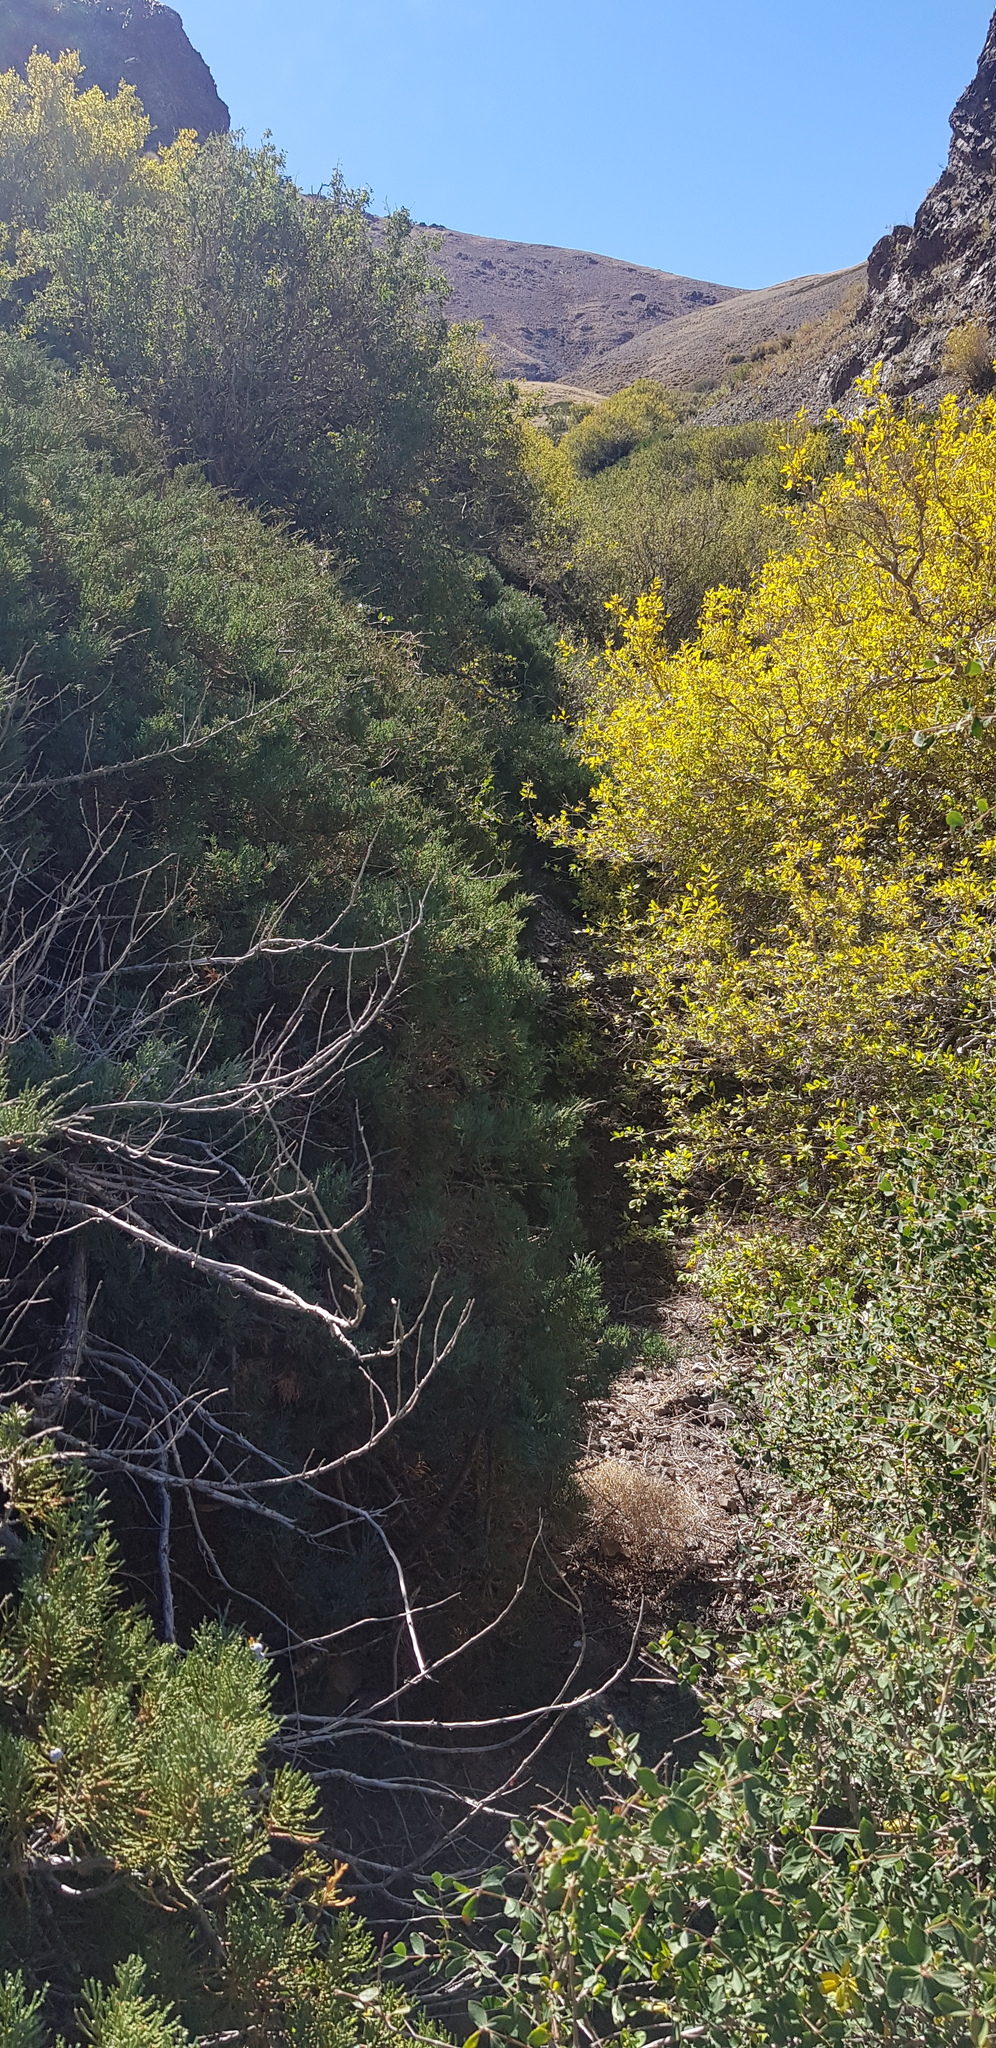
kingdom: Plantae
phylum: Tracheophyta
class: Magnoliopsida
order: Dipsacales
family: Caprifoliaceae
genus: Lonicera
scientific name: Lonicera microphylla
